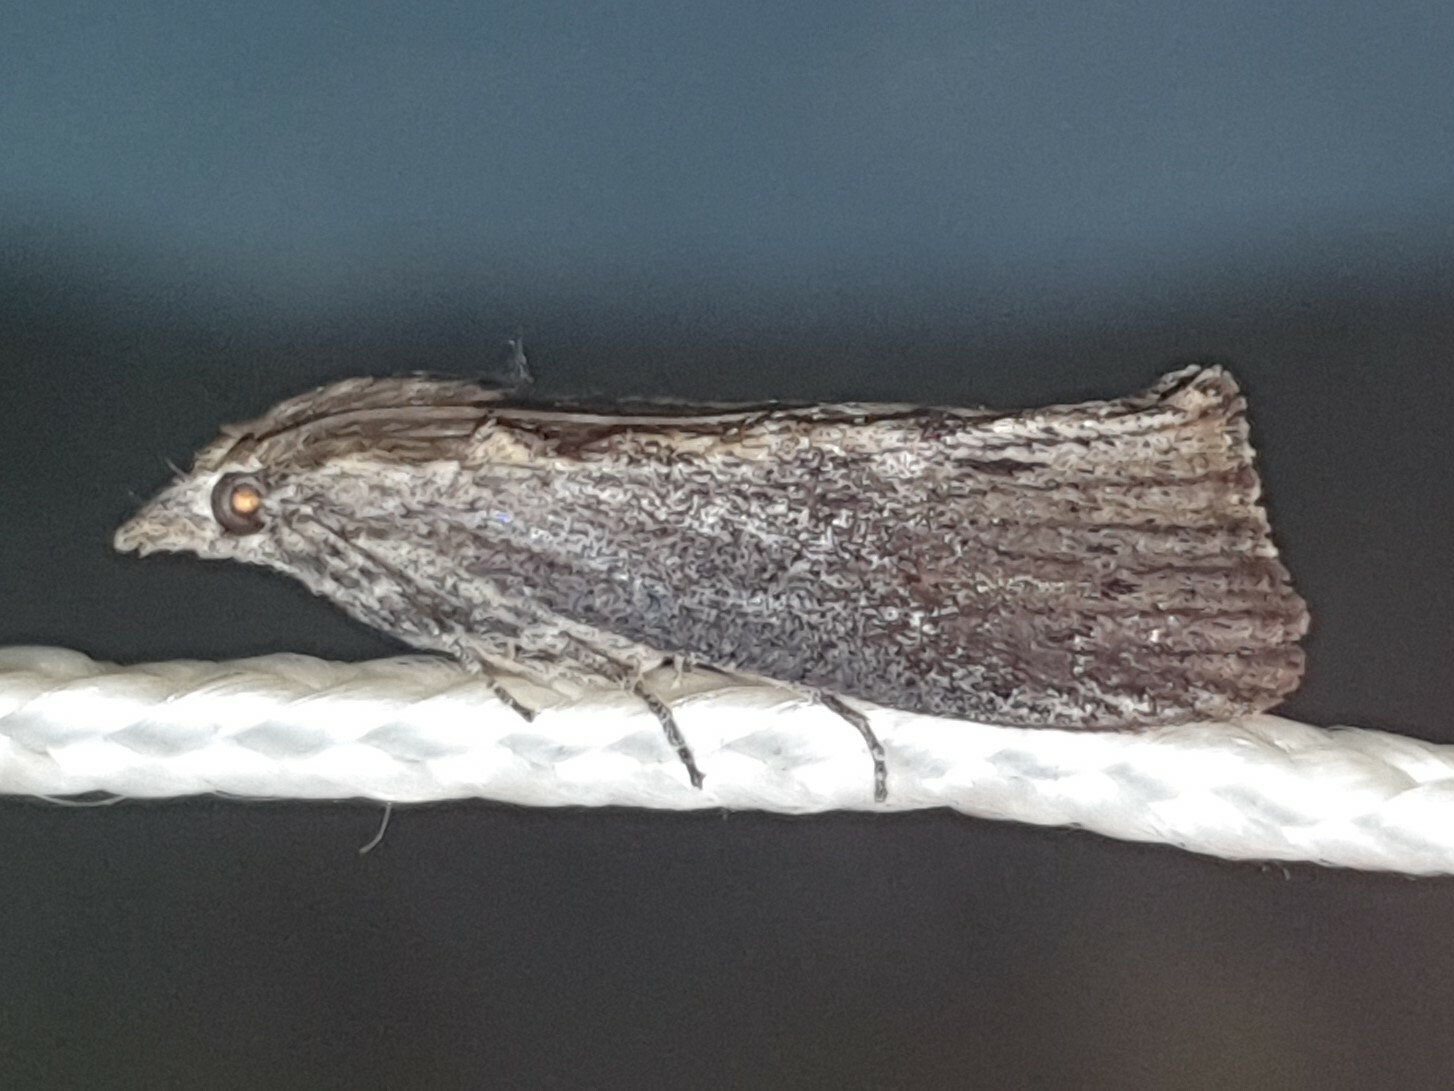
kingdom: Animalia
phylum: Arthropoda
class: Insecta
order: Lepidoptera
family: Pyralidae
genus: Galleria
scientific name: Galleria mellonella
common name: Greater wax moth
